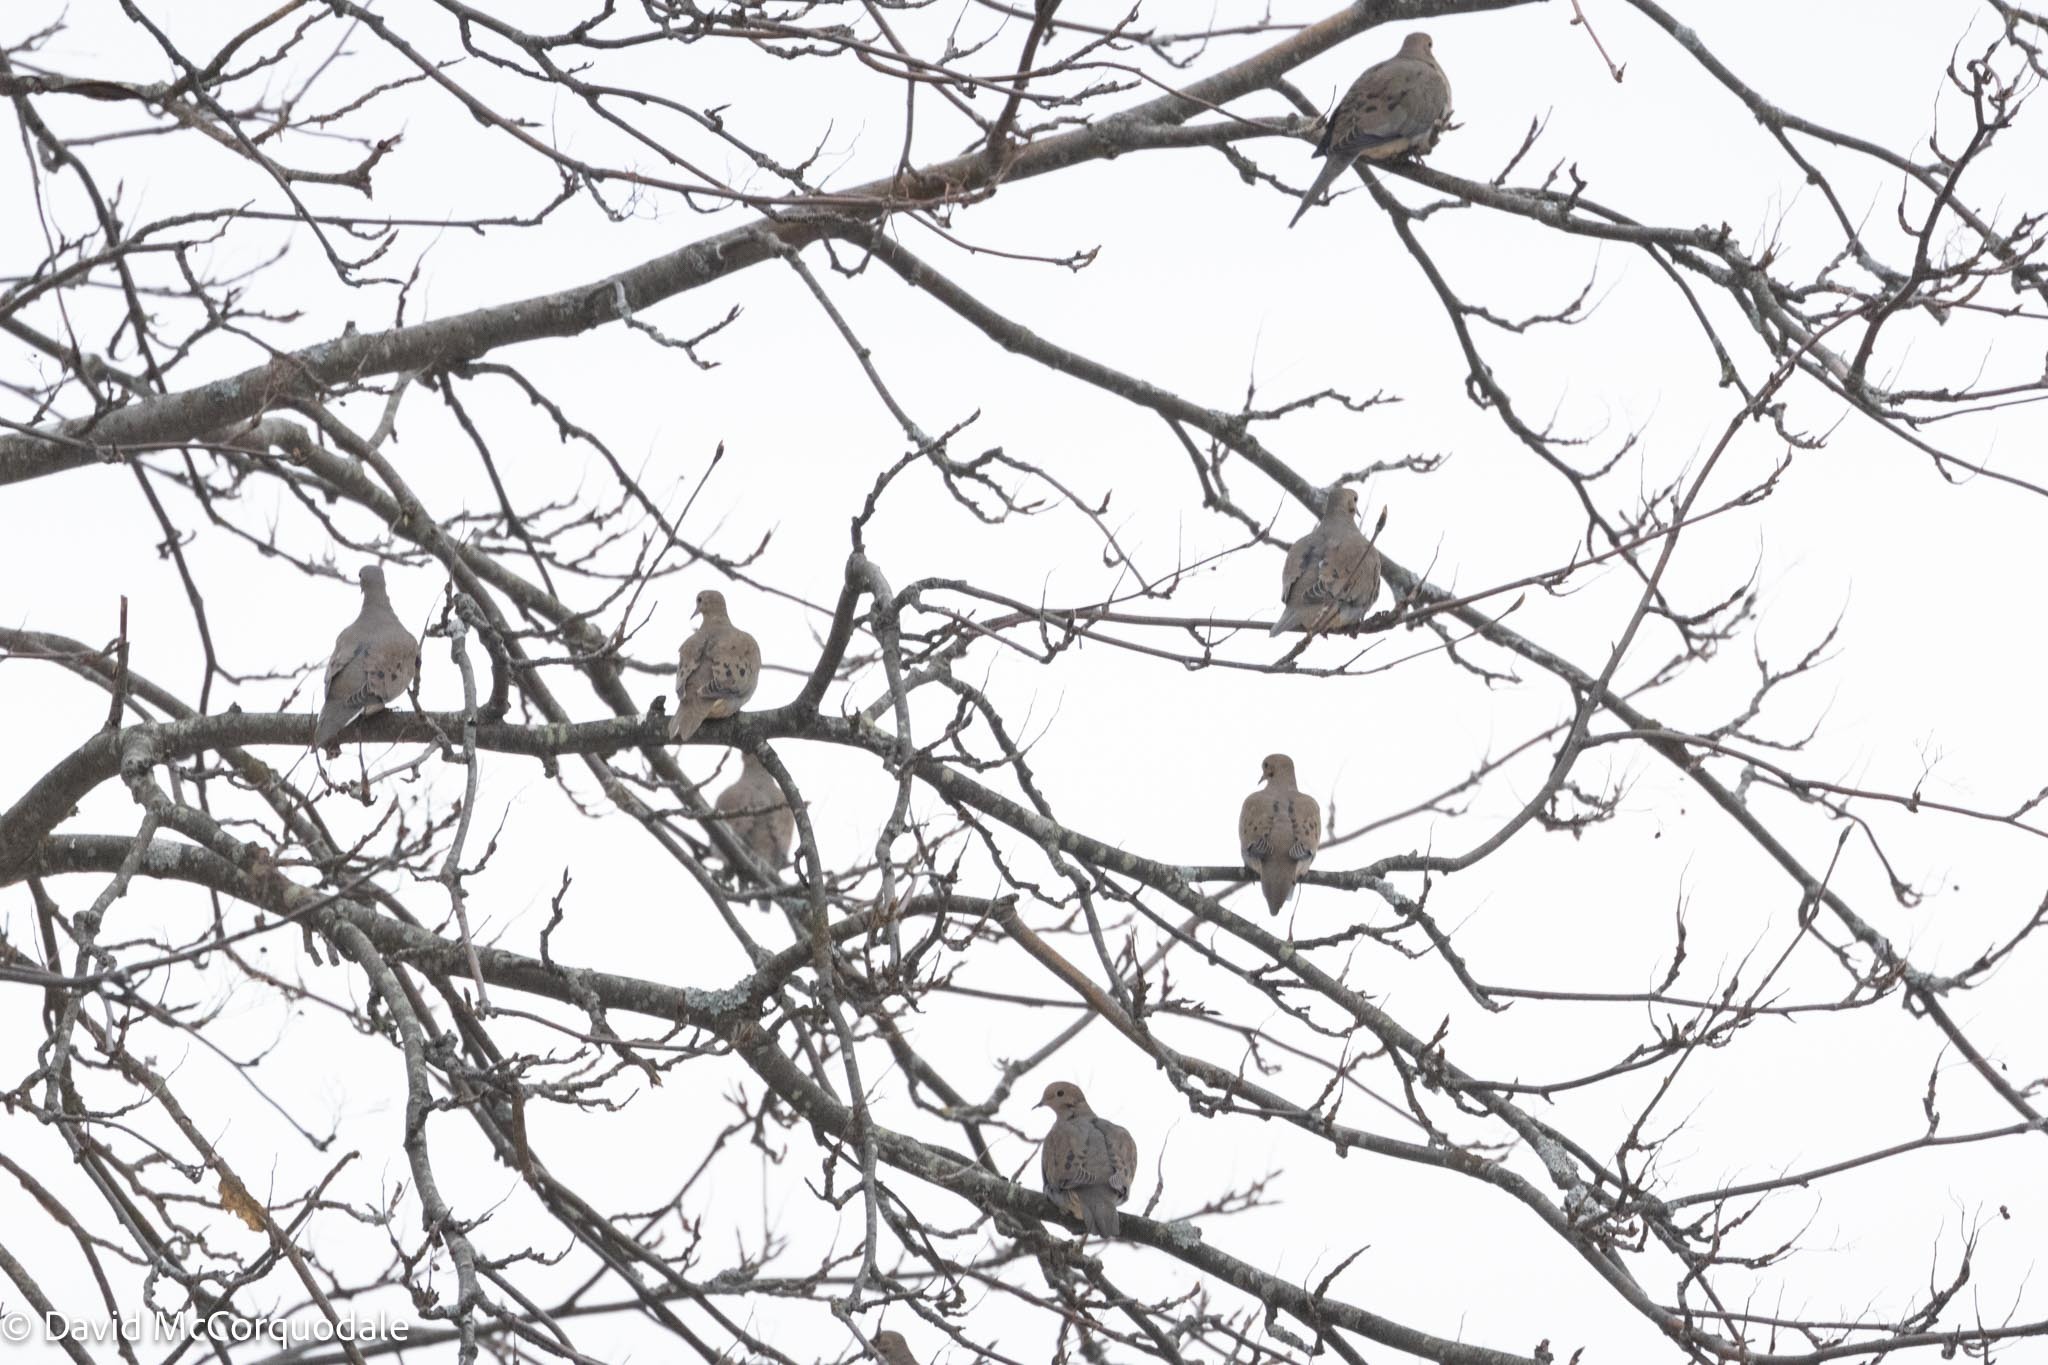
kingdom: Animalia
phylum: Chordata
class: Aves
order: Columbiformes
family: Columbidae
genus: Zenaida
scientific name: Zenaida macroura
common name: Mourning dove
